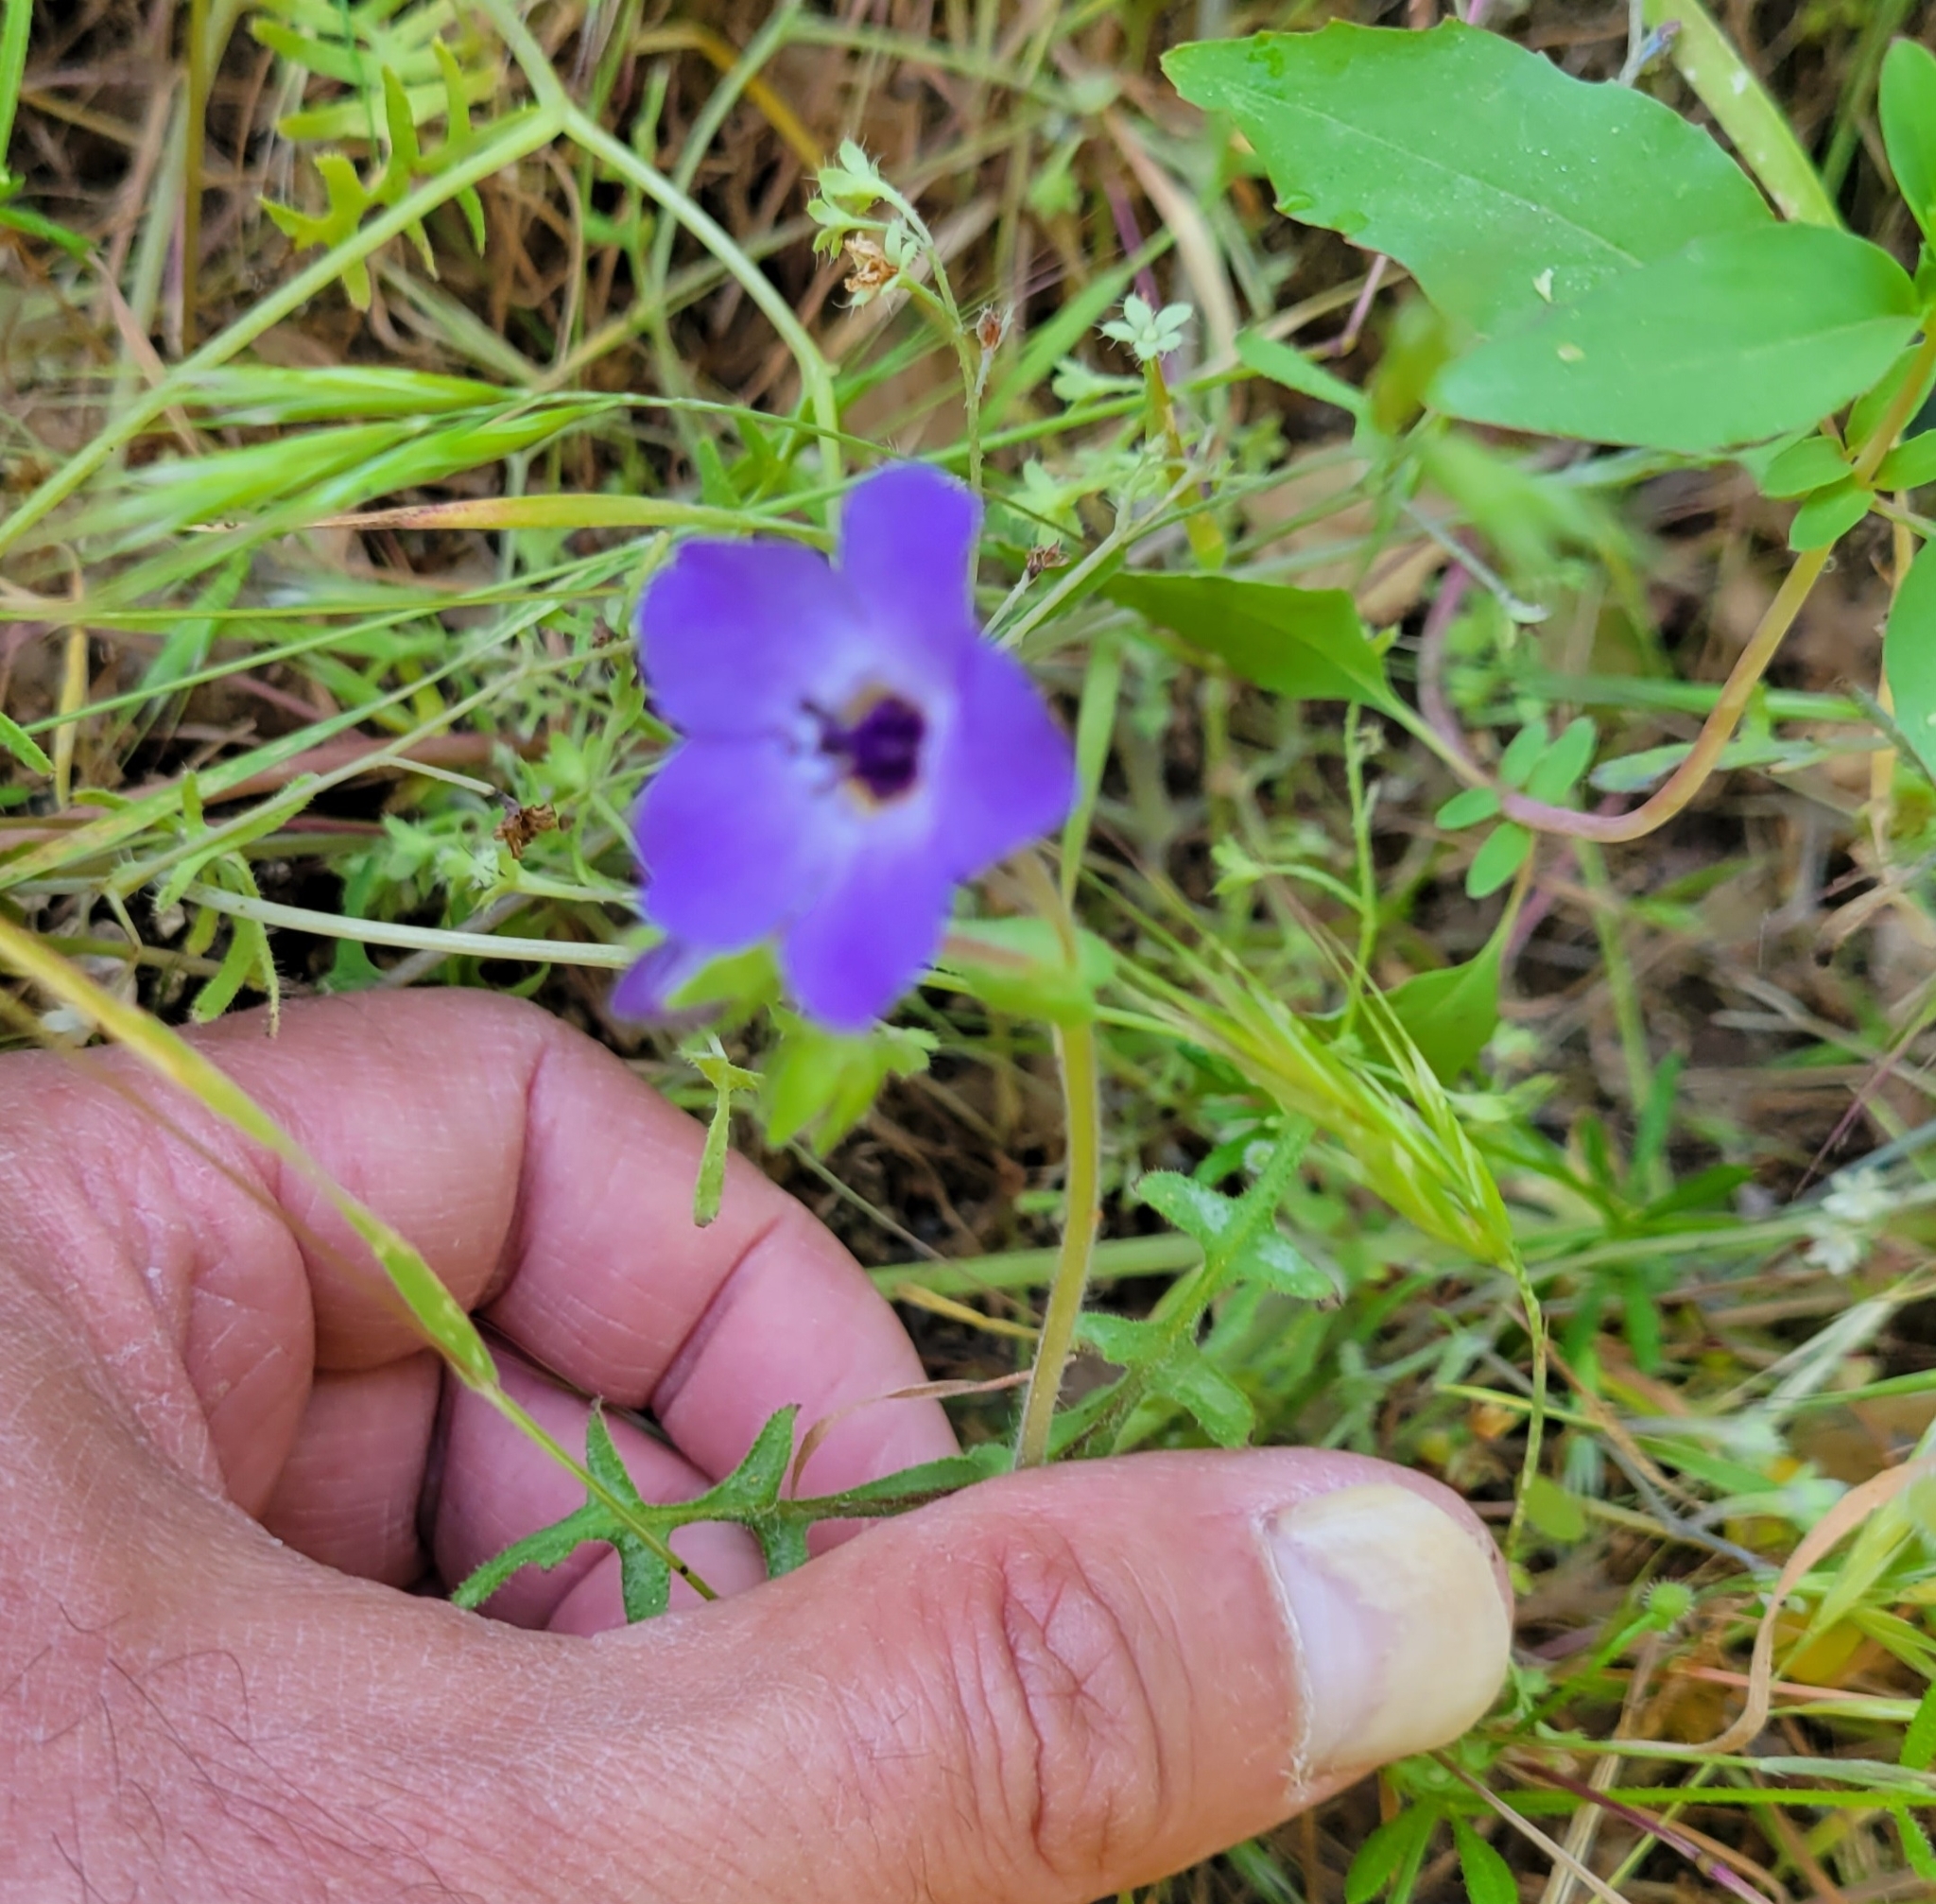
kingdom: Plantae
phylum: Tracheophyta
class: Magnoliopsida
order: Boraginales
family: Hydrophyllaceae
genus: Pholistoma
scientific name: Pholistoma auritum
